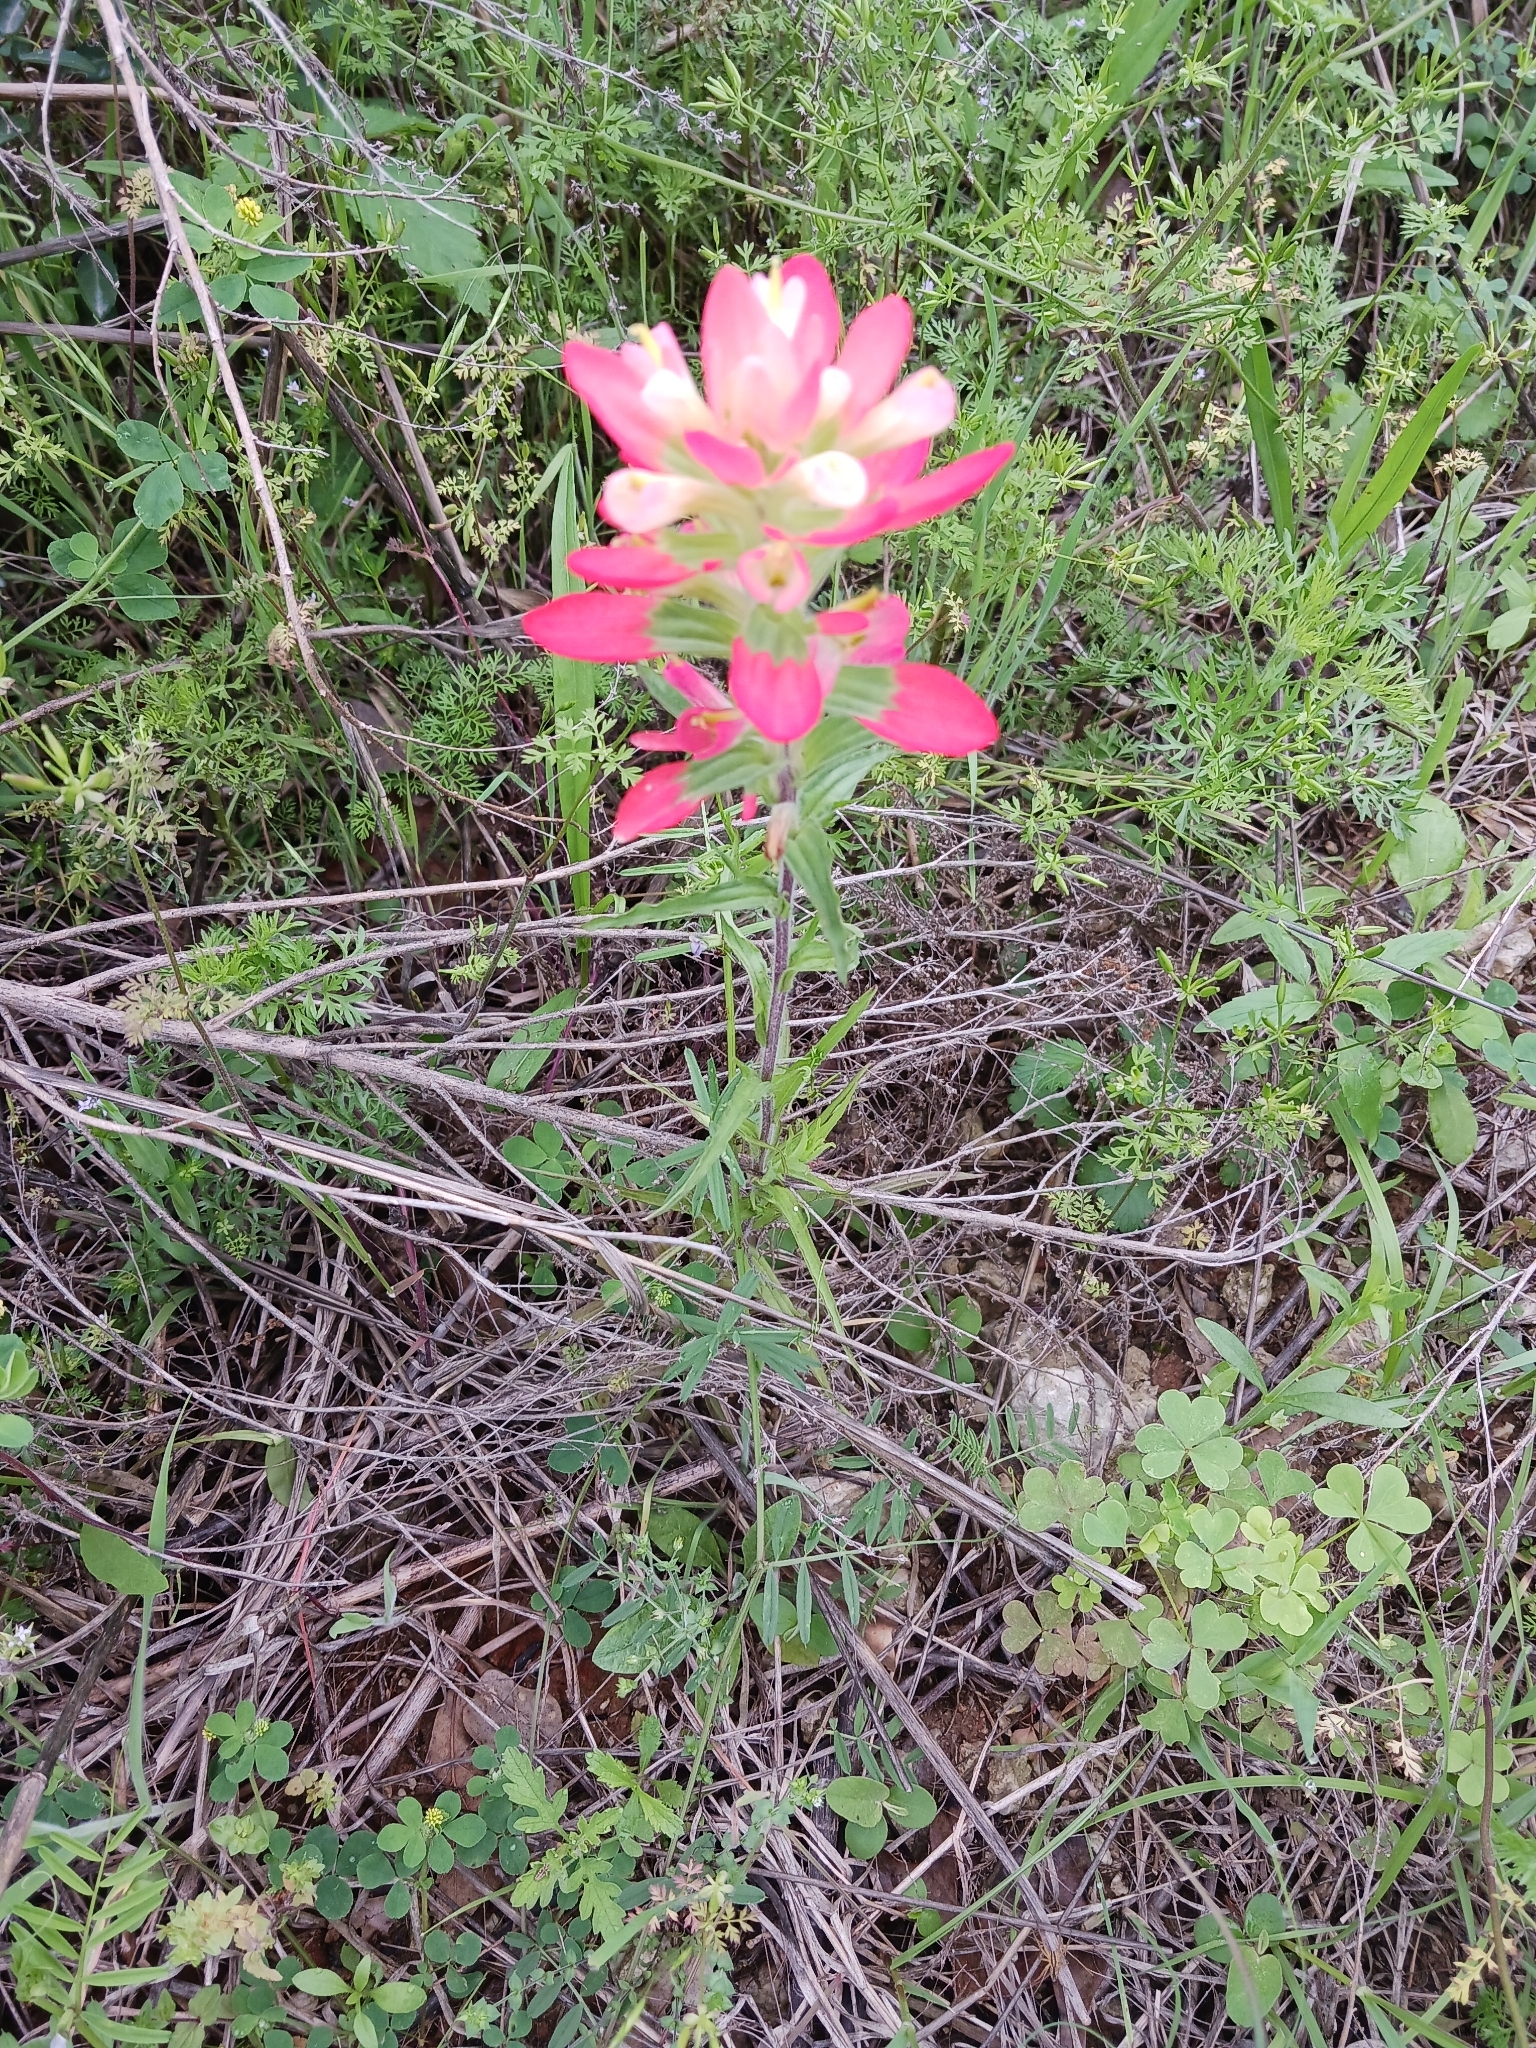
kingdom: Plantae
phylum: Tracheophyta
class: Magnoliopsida
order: Lamiales
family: Orobanchaceae
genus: Castilleja
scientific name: Castilleja indivisa
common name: Texas paintbrush
